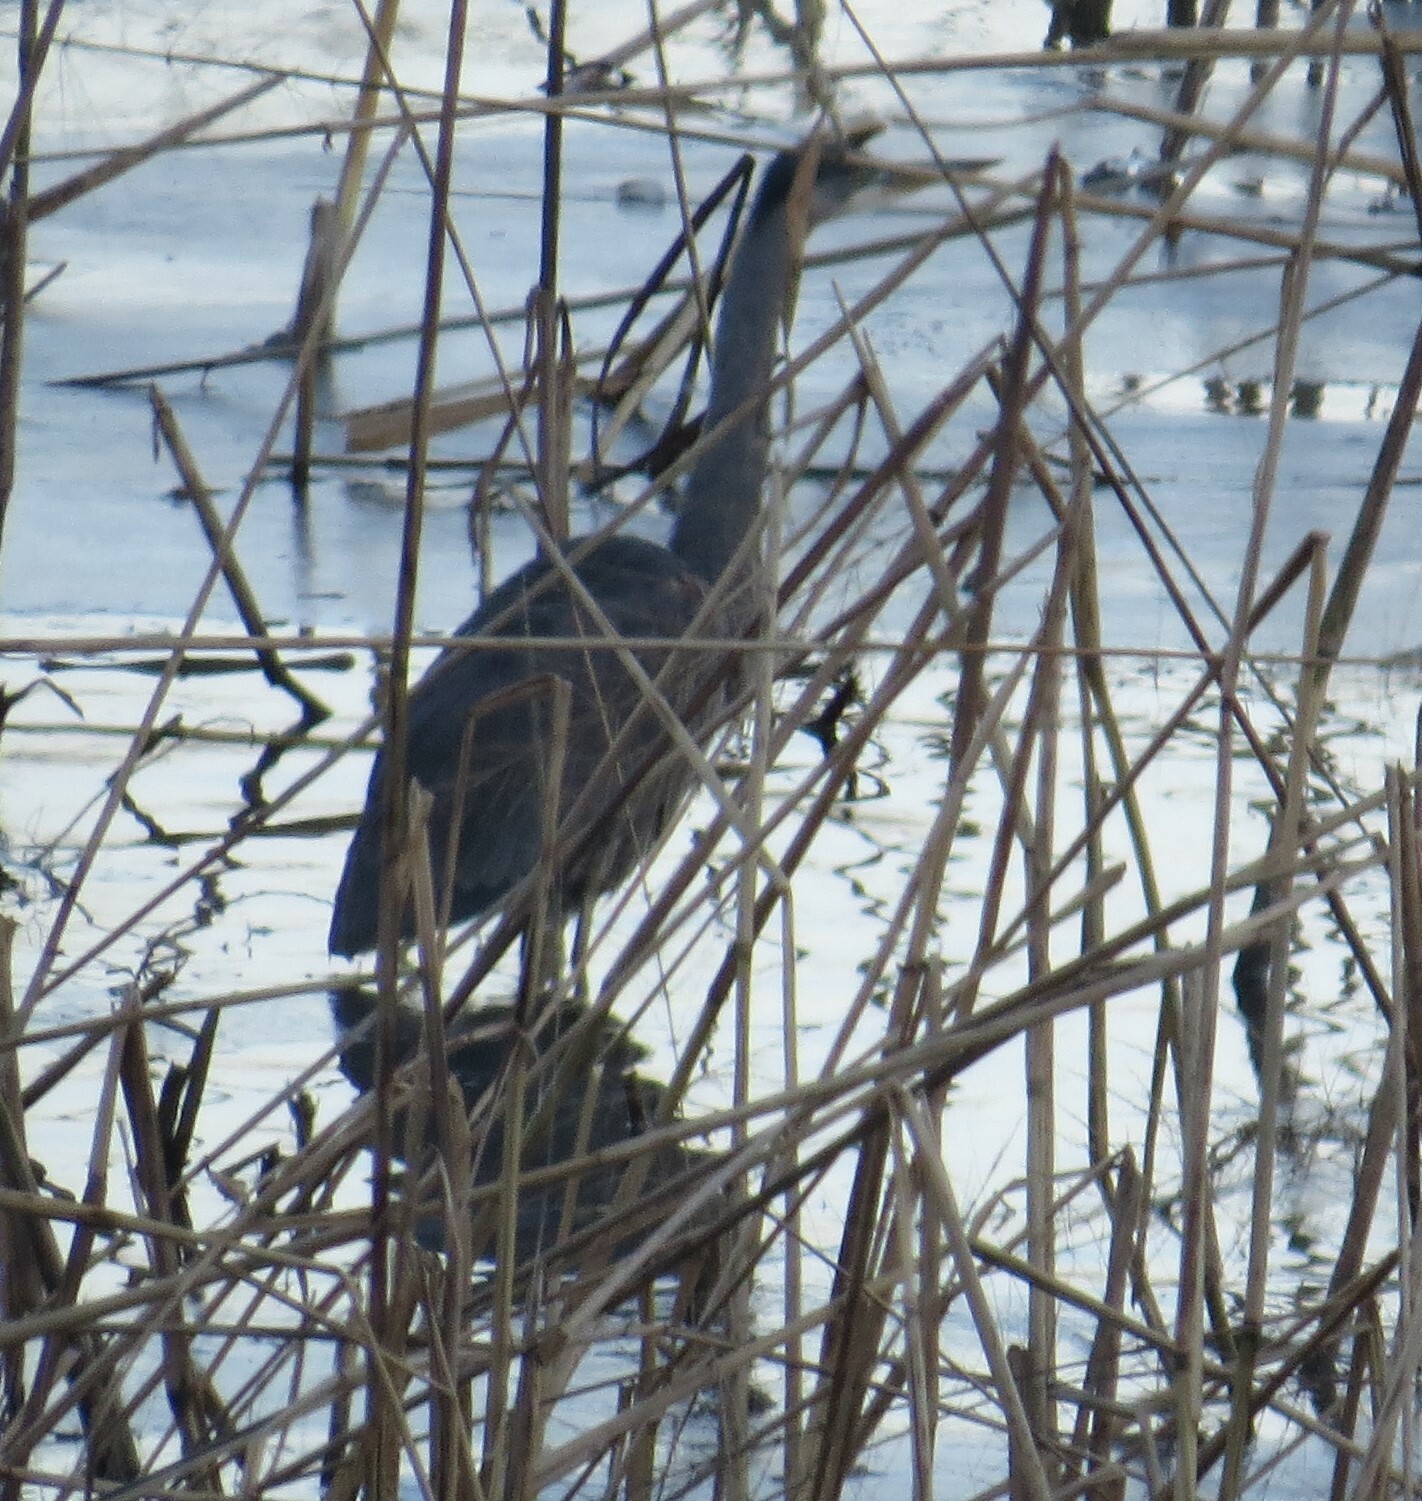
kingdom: Animalia
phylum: Chordata
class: Aves
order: Pelecaniformes
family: Ardeidae
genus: Ardea
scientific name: Ardea herodias
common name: Great blue heron
